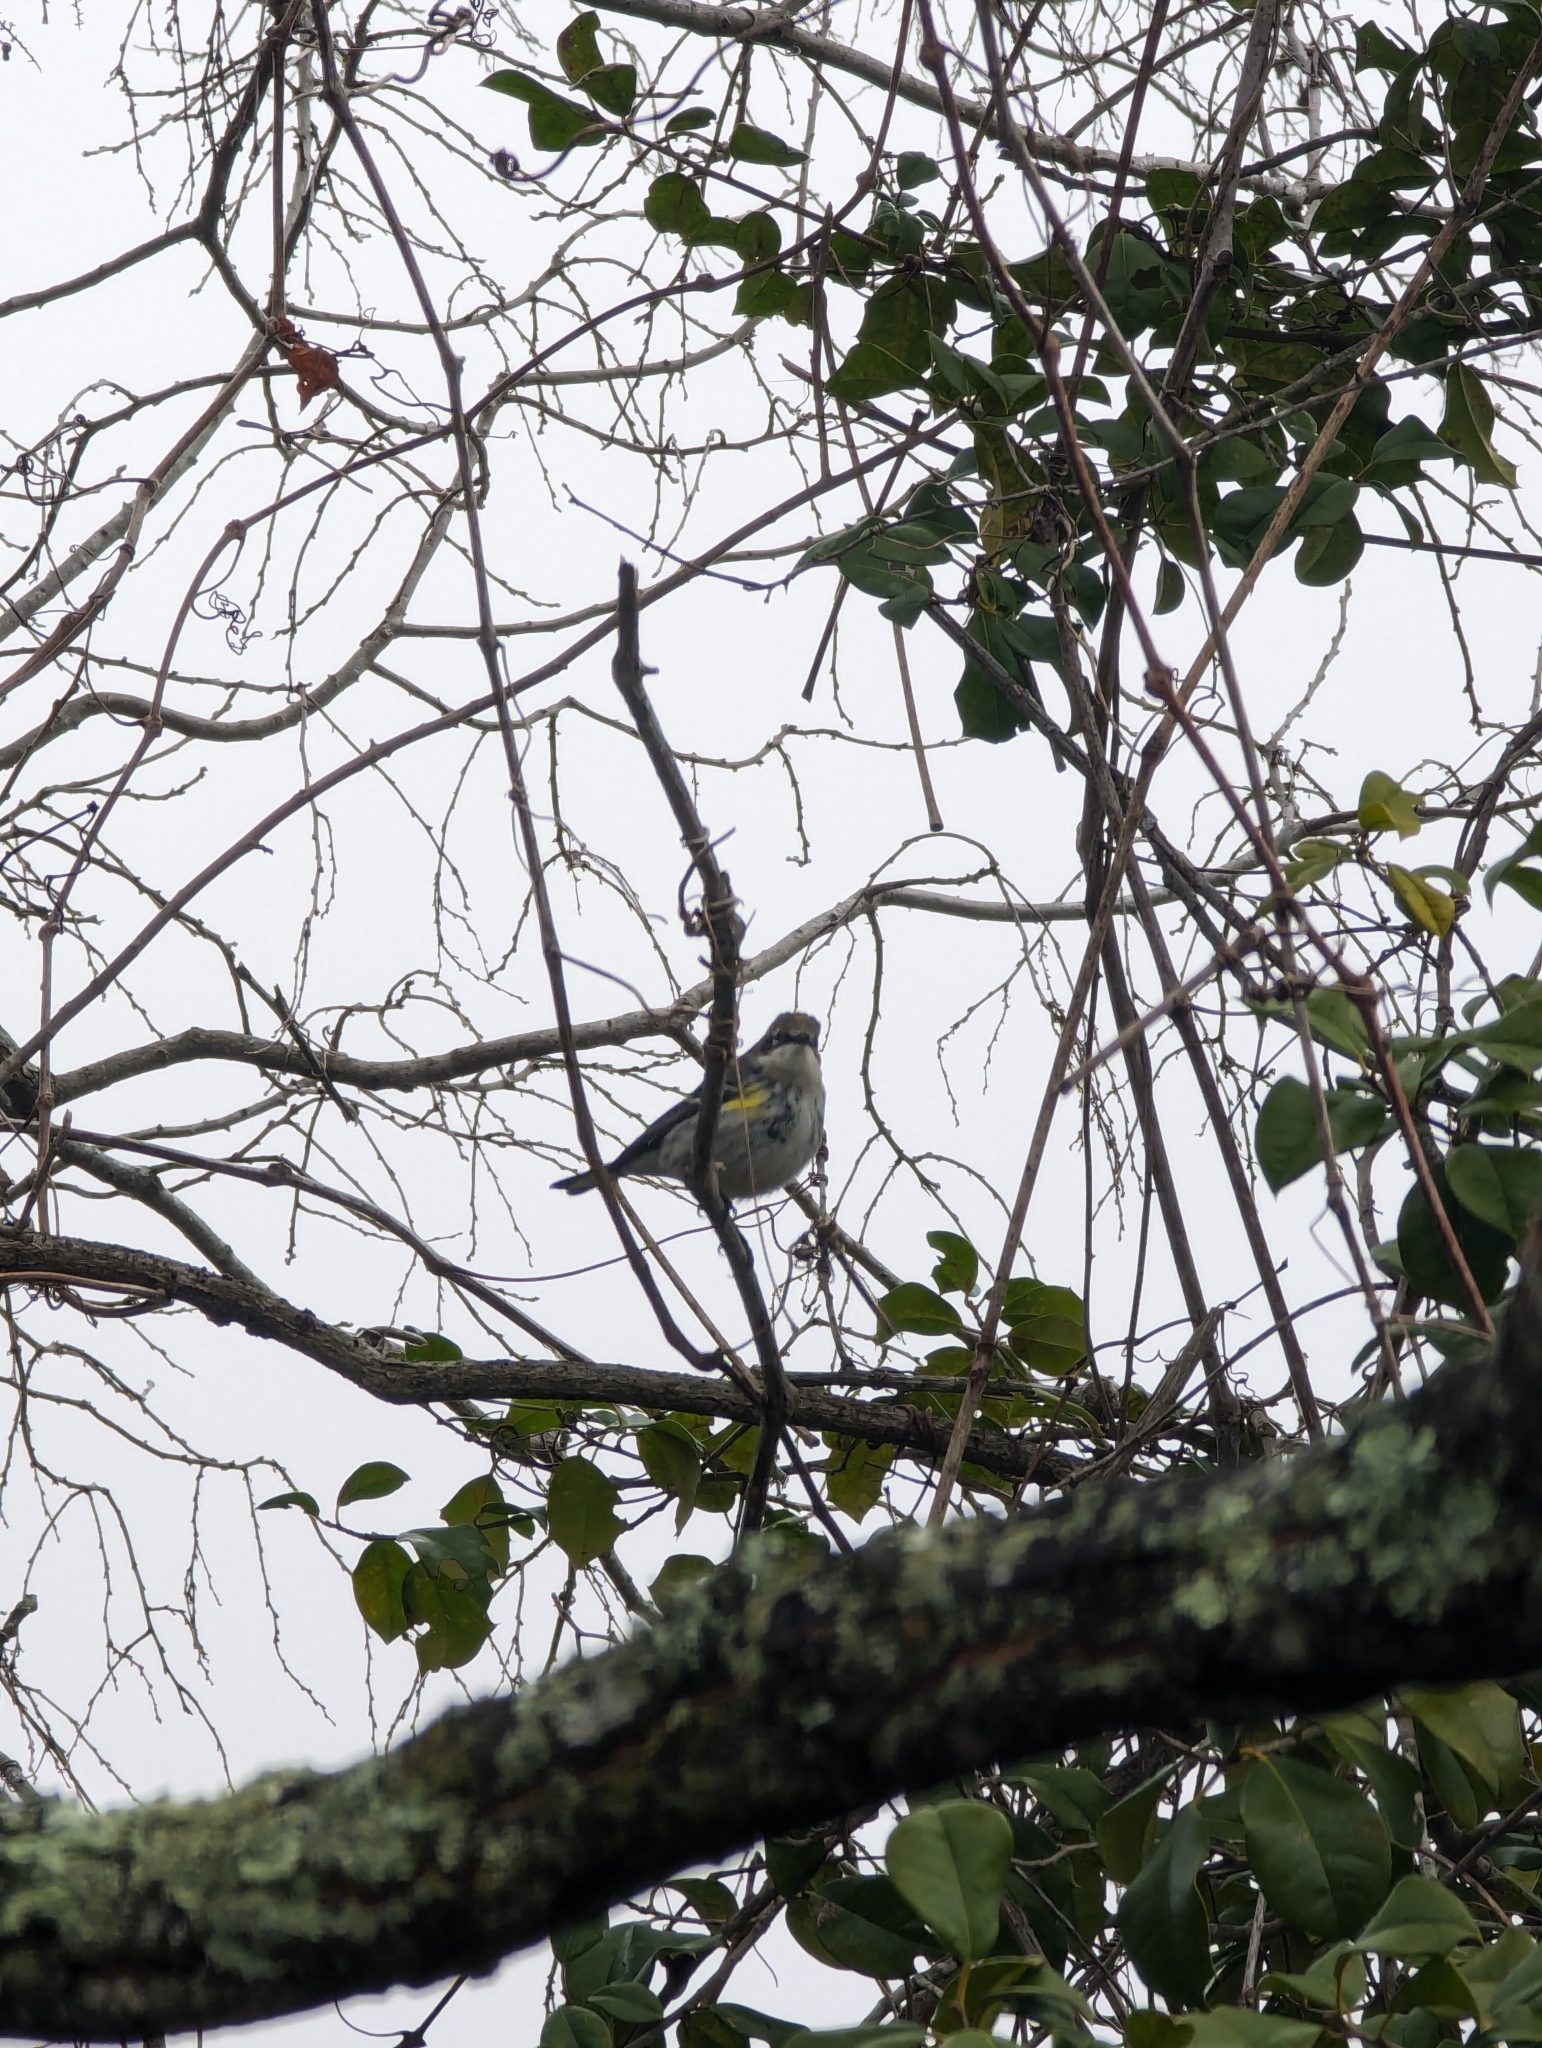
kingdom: Animalia
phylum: Chordata
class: Aves
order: Passeriformes
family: Parulidae
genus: Setophaga
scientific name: Setophaga coronata
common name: Myrtle warbler
